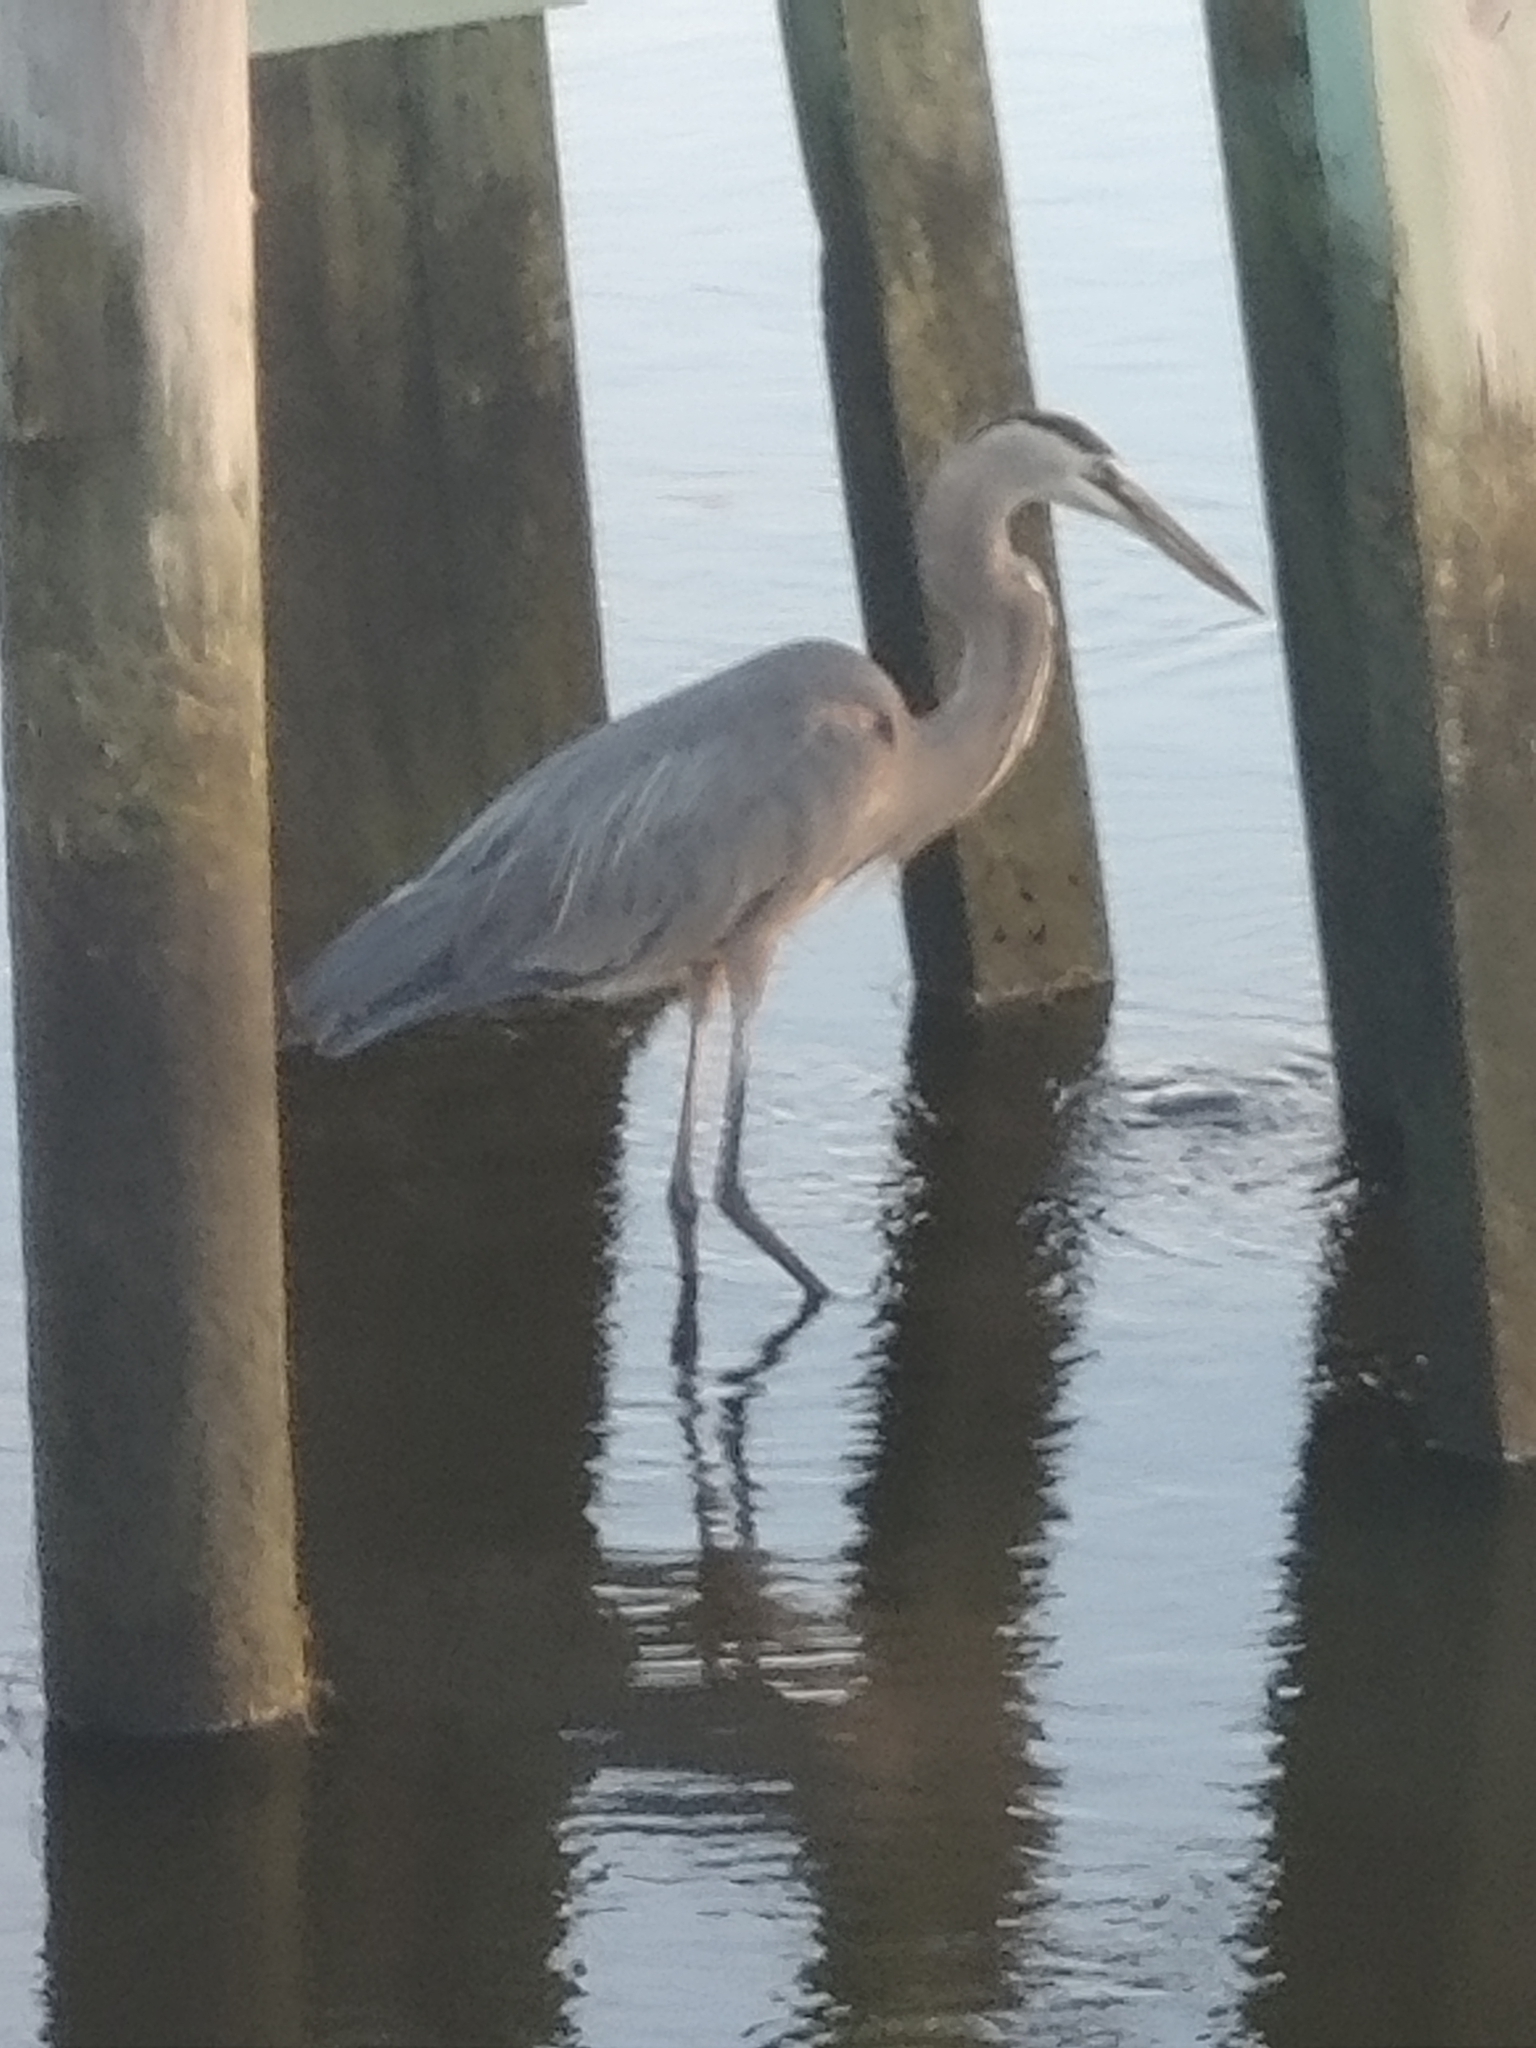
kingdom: Animalia
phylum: Chordata
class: Aves
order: Pelecaniformes
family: Ardeidae
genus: Ardea
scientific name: Ardea herodias
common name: Great blue heron
